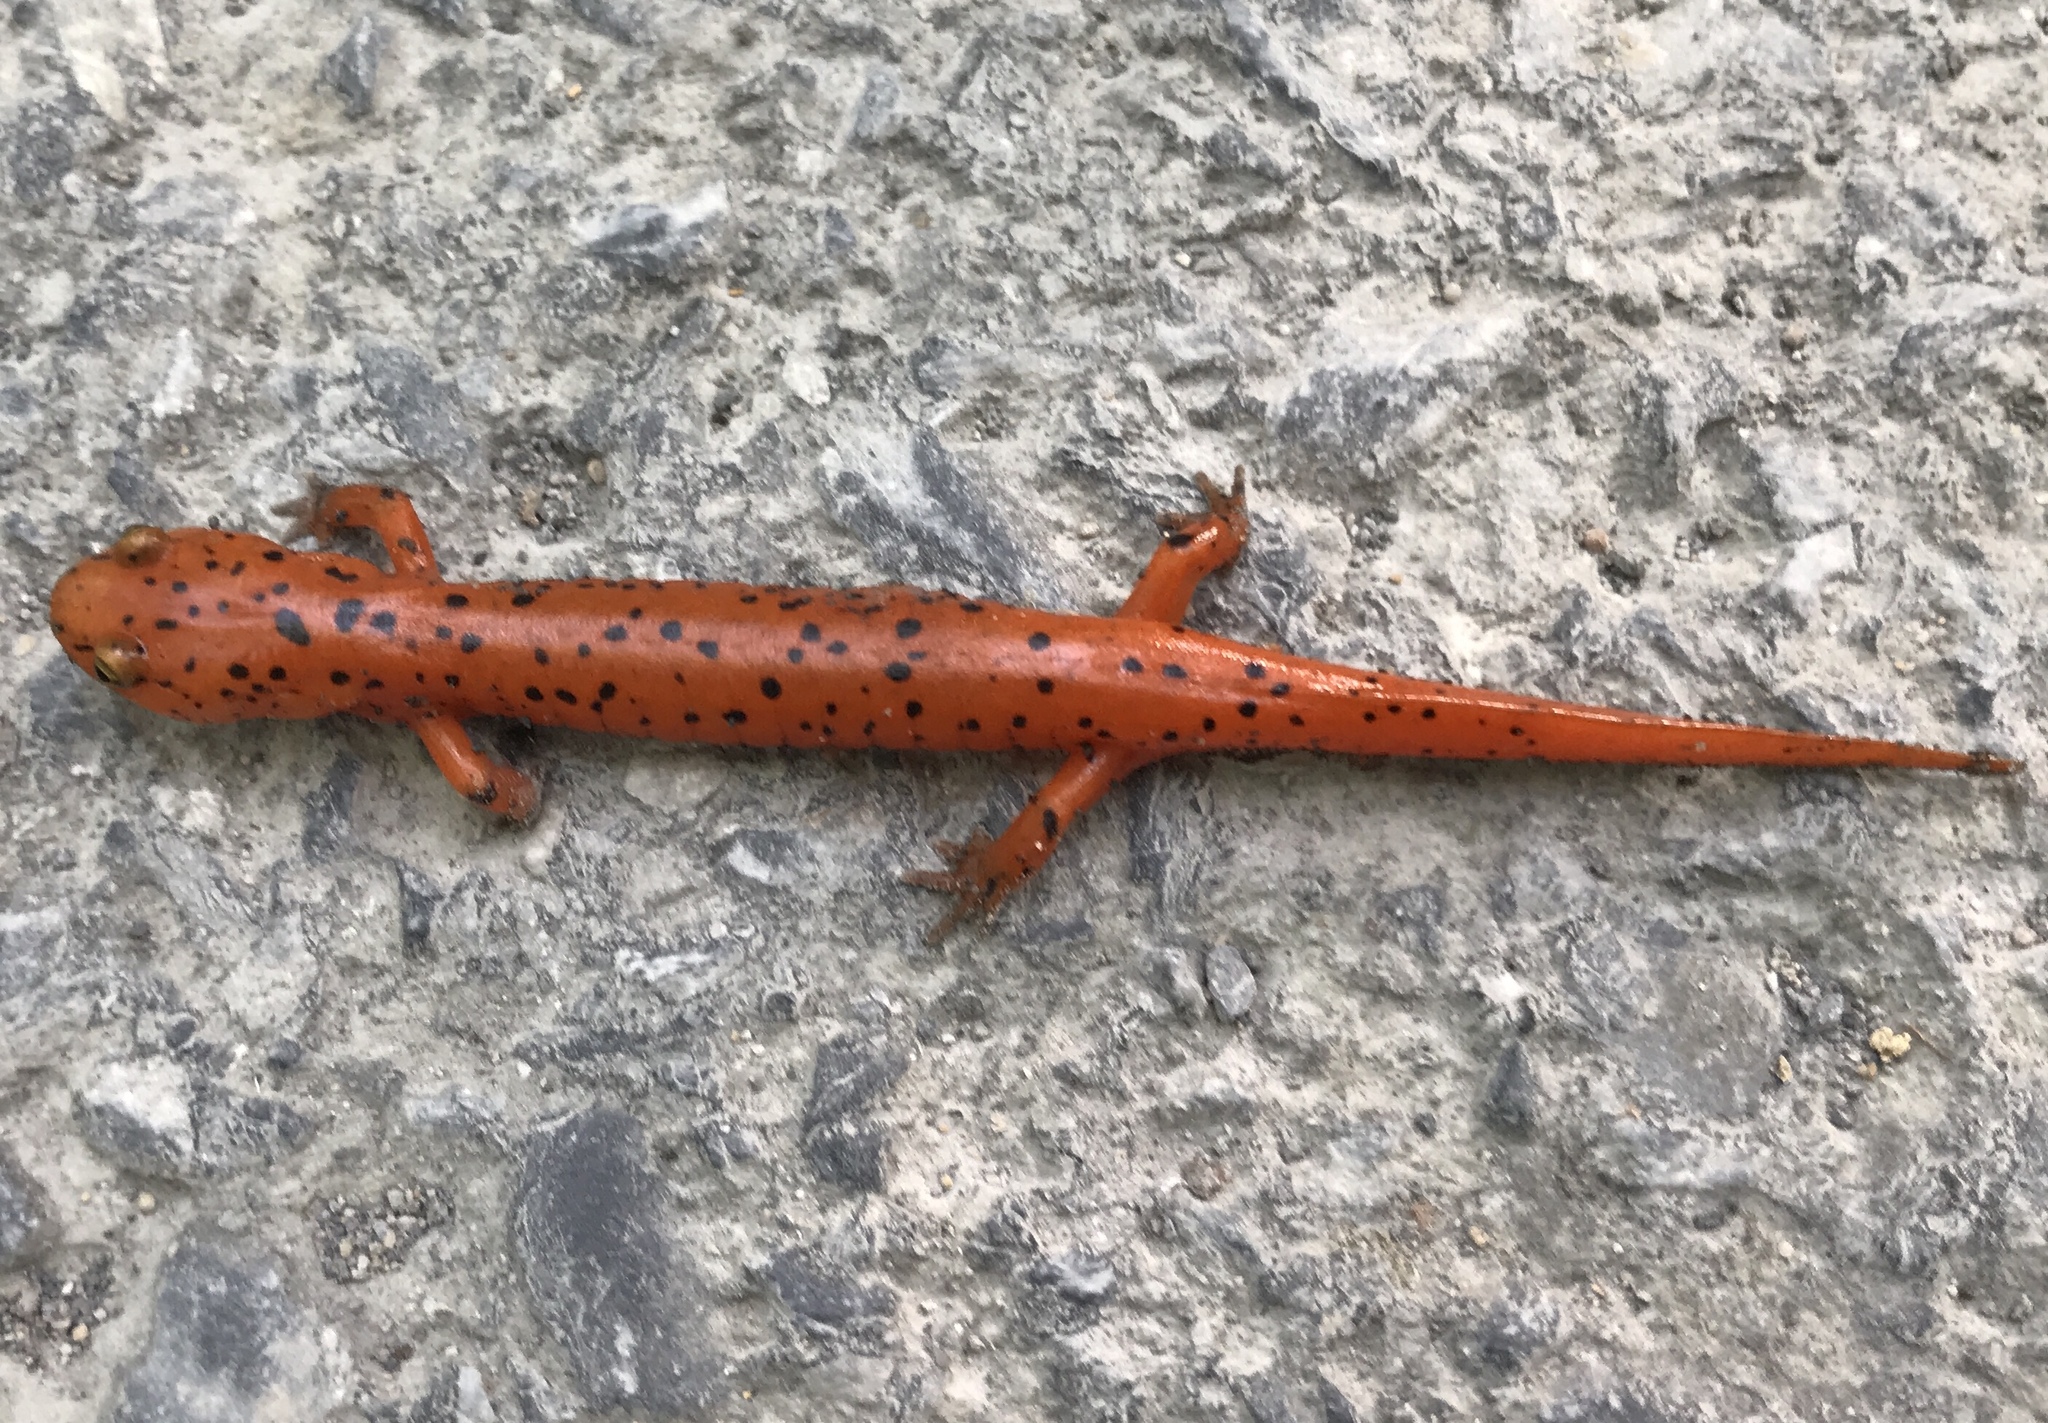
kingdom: Animalia
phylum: Chordata
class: Amphibia
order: Caudata
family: Plethodontidae
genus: Pseudotriton
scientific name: Pseudotriton ruber
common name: Red salamander
